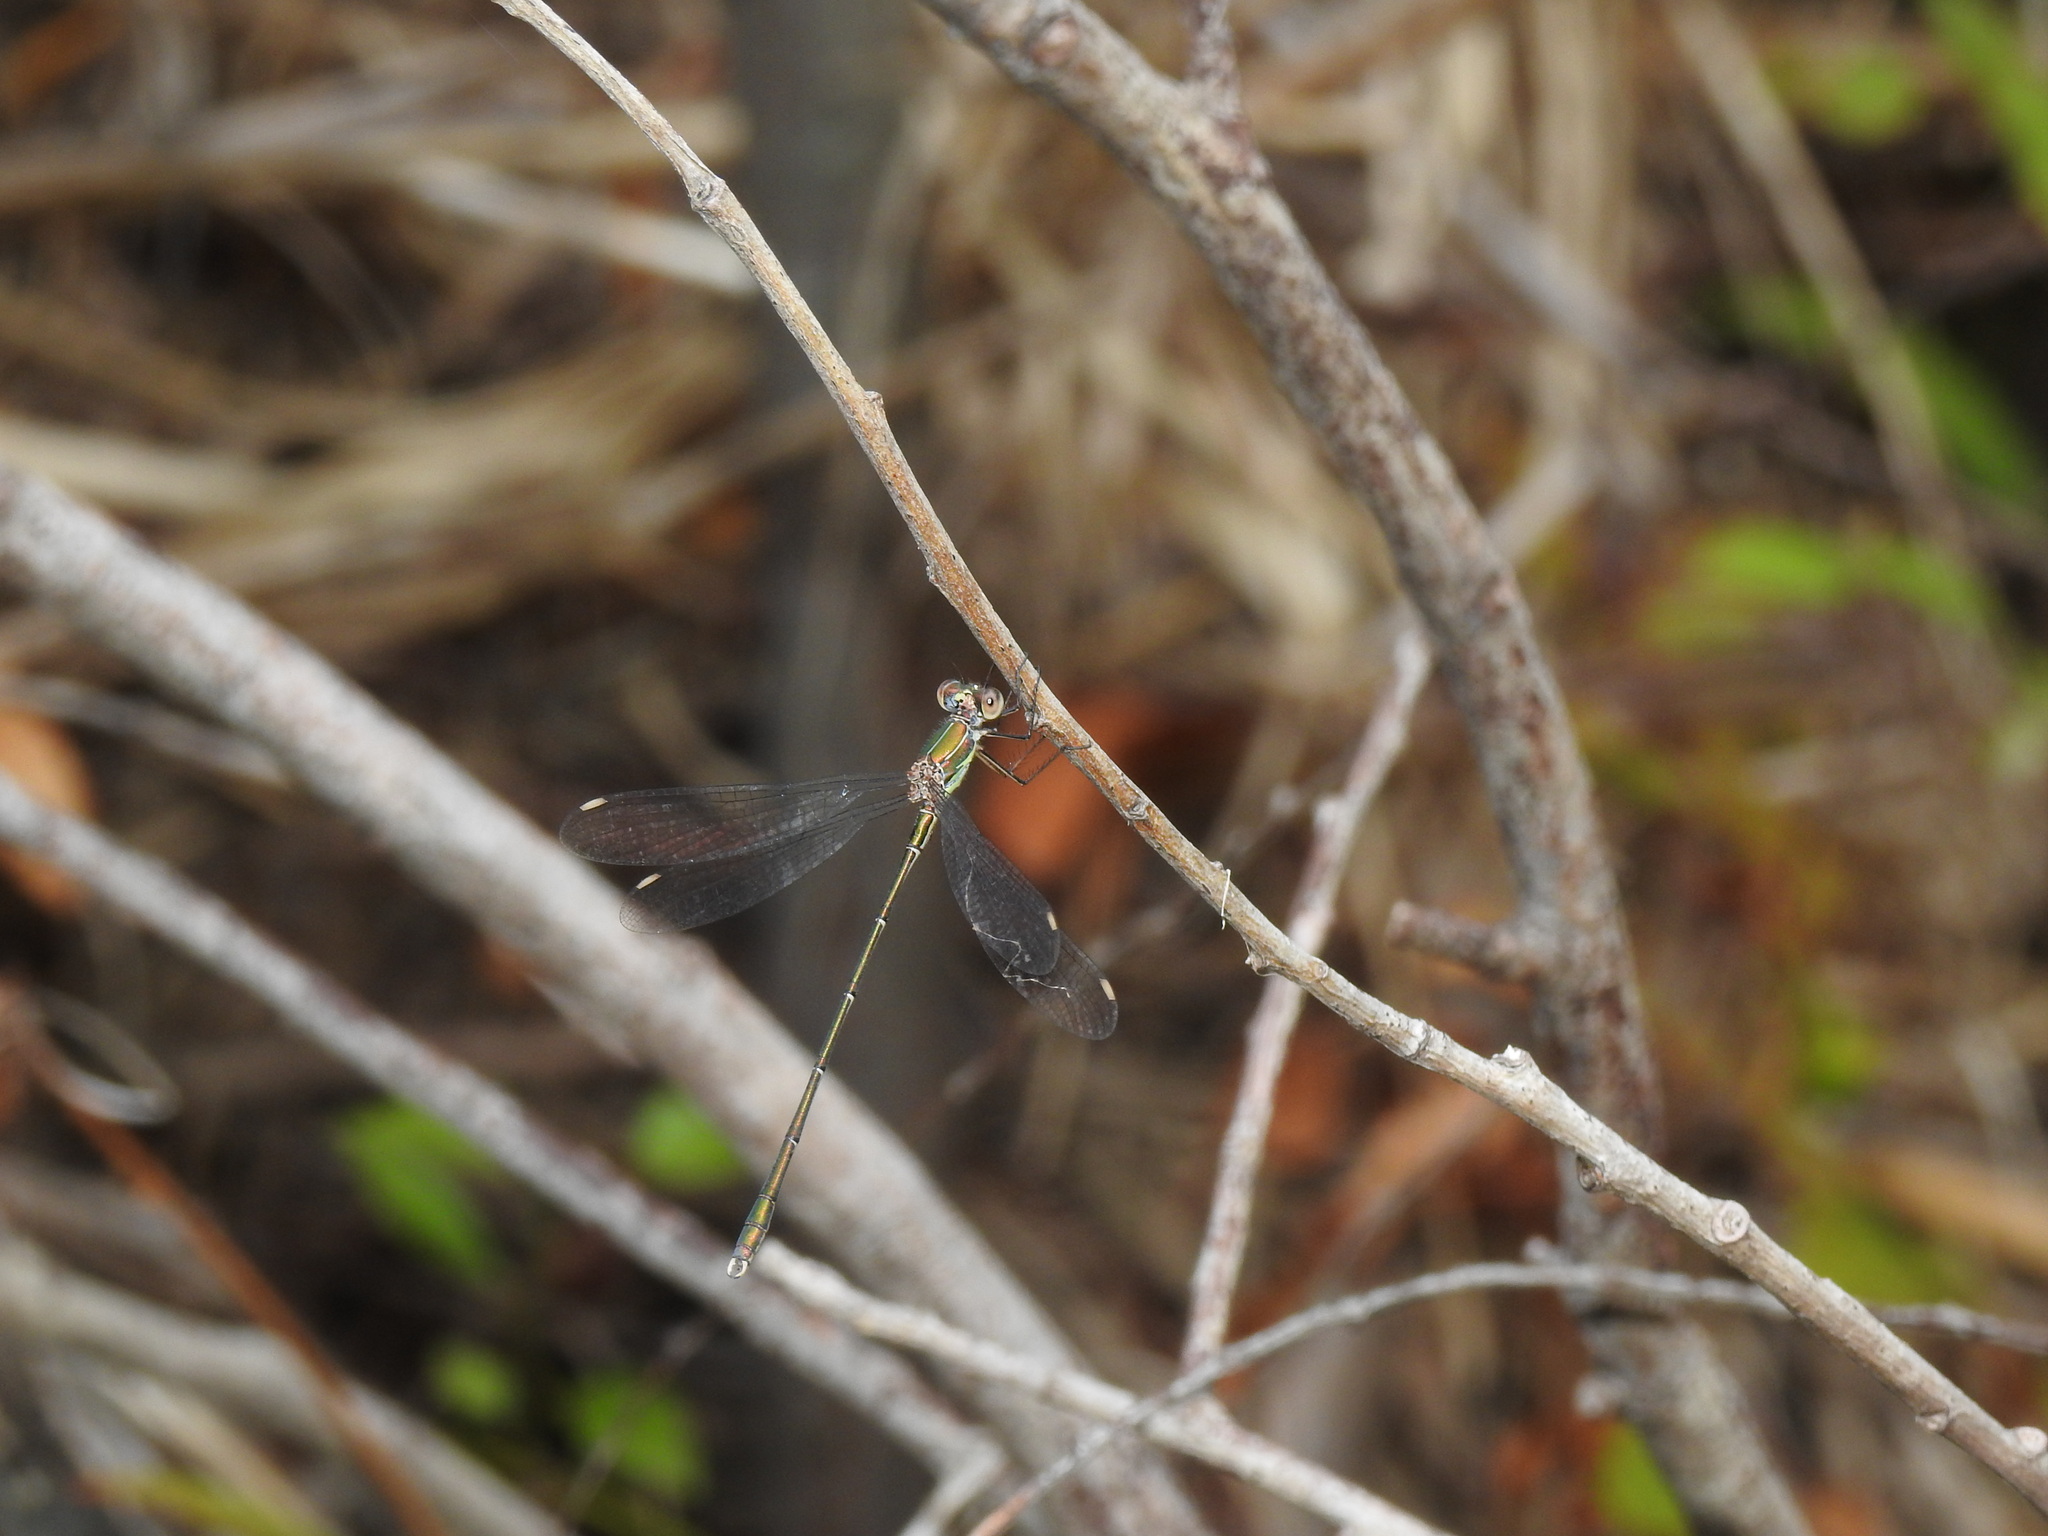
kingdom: Animalia
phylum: Arthropoda
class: Insecta
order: Odonata
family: Lestidae
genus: Chalcolestes
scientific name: Chalcolestes viridis
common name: Green emerald damselfly
